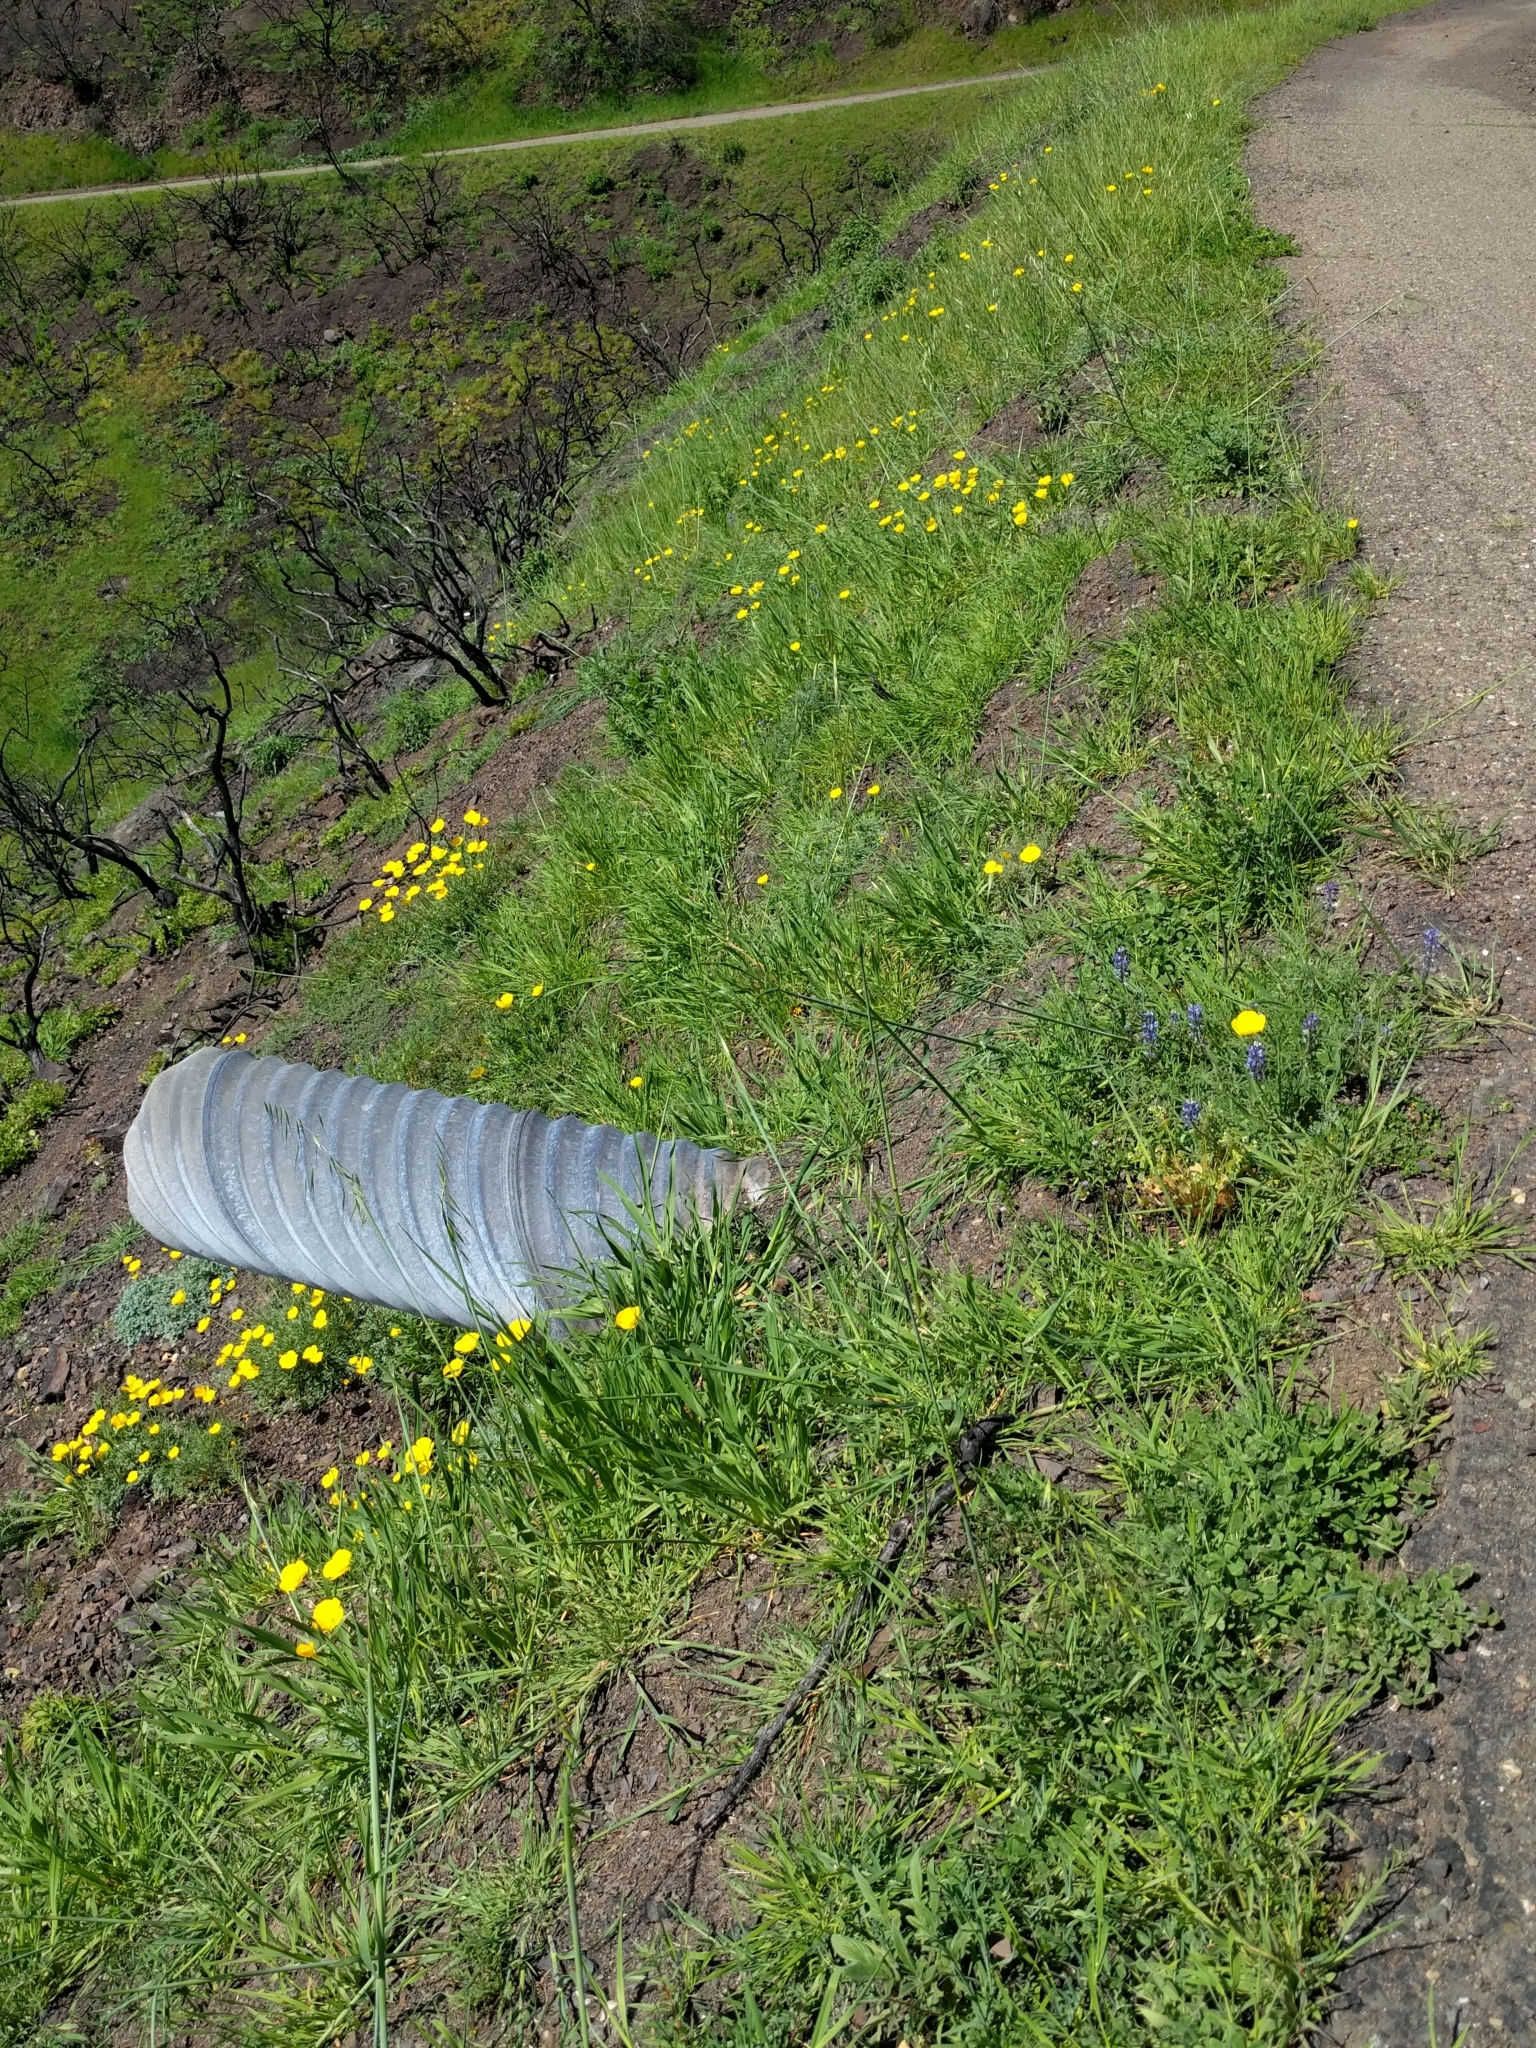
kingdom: Plantae
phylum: Tracheophyta
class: Magnoliopsida
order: Ranunculales
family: Papaveraceae
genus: Eschscholzia
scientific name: Eschscholzia caespitosa
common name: Tufted california-poppy
